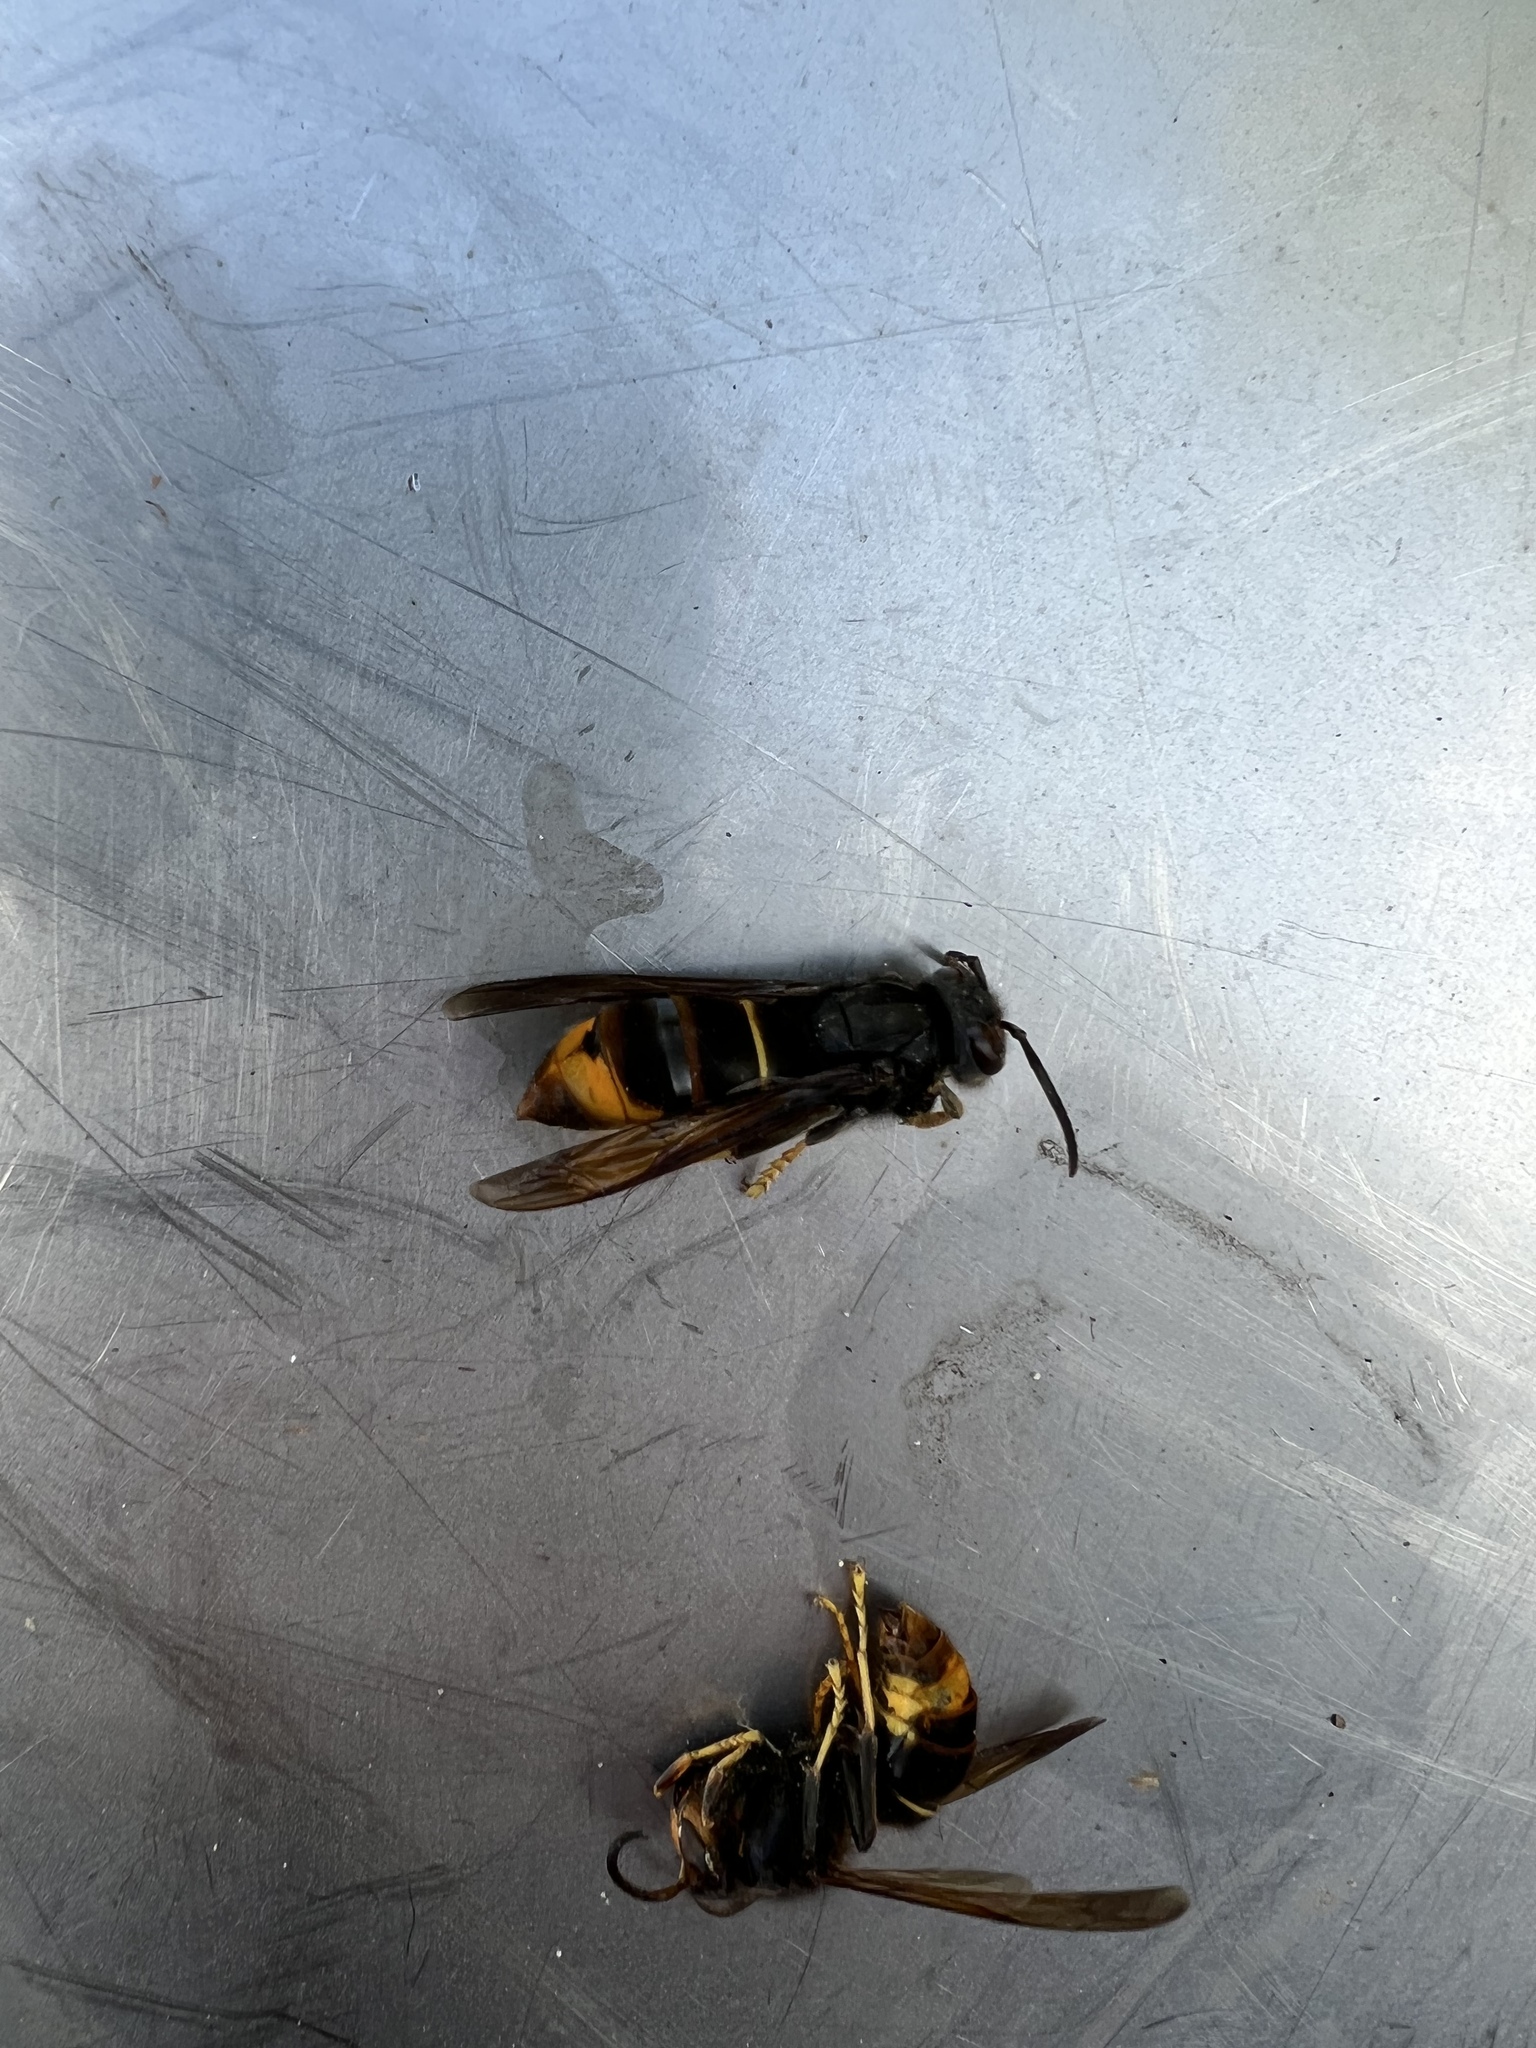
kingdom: Animalia
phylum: Arthropoda
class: Insecta
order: Hymenoptera
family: Vespidae
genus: Vespa
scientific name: Vespa velutina
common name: Asian hornet
